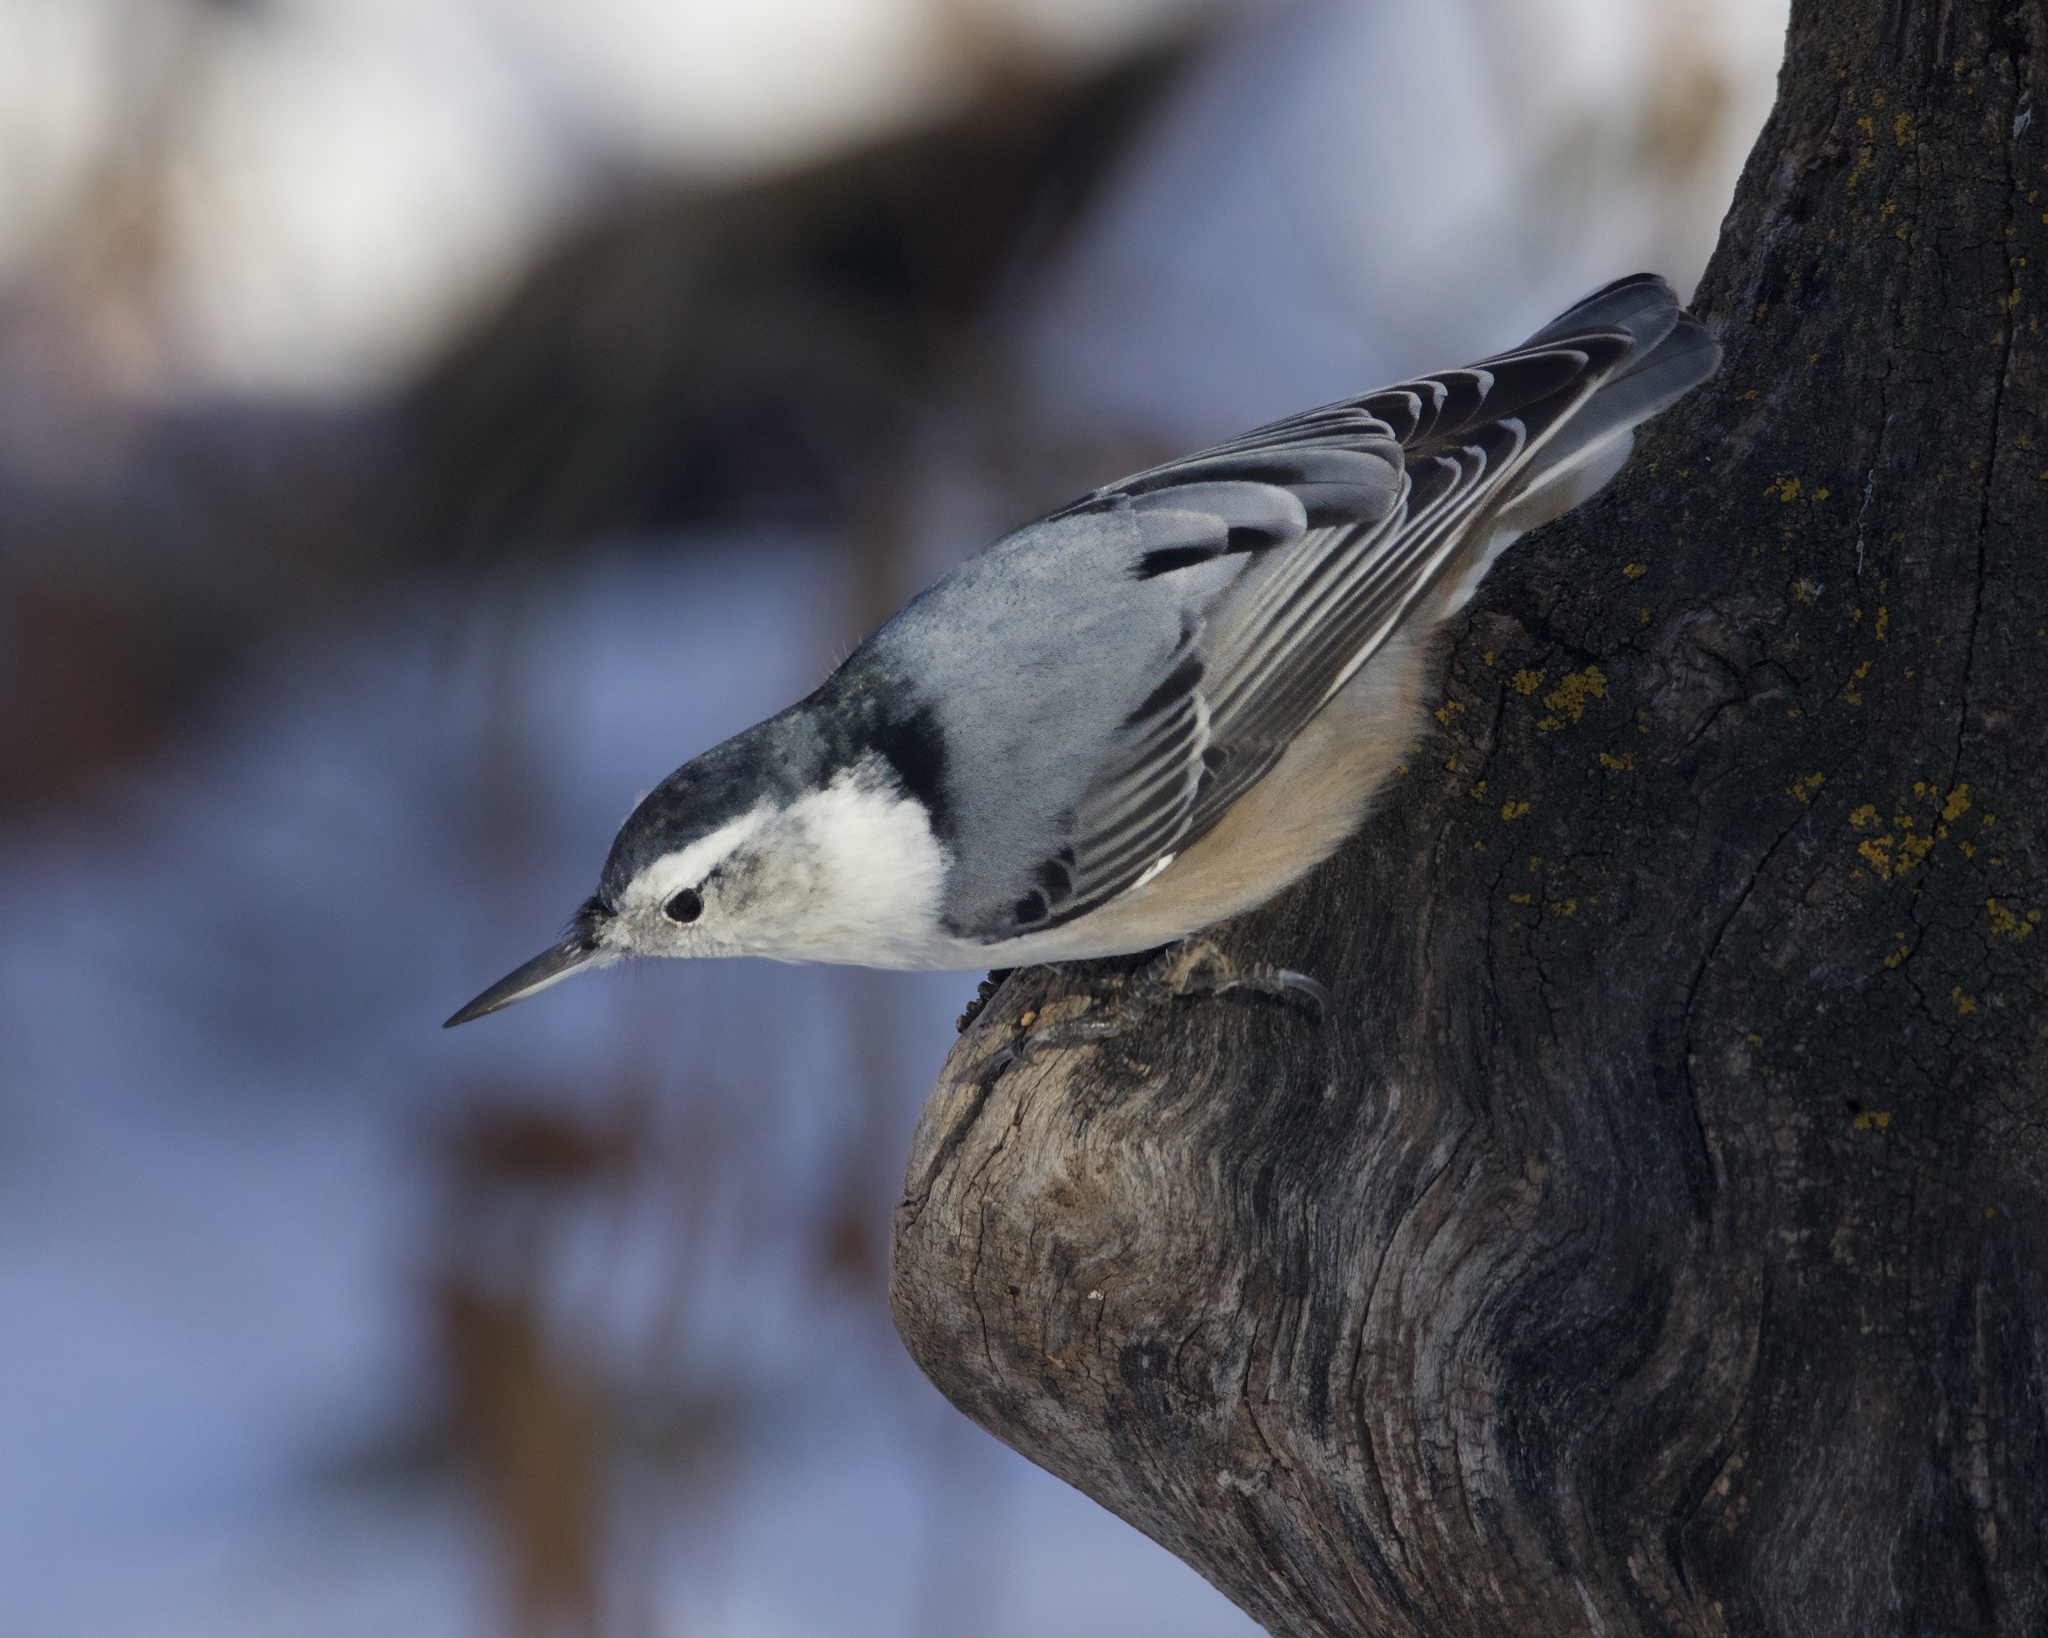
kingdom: Animalia
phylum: Chordata
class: Aves
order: Passeriformes
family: Sittidae
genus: Sitta
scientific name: Sitta carolinensis
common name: White-breasted nuthatch
